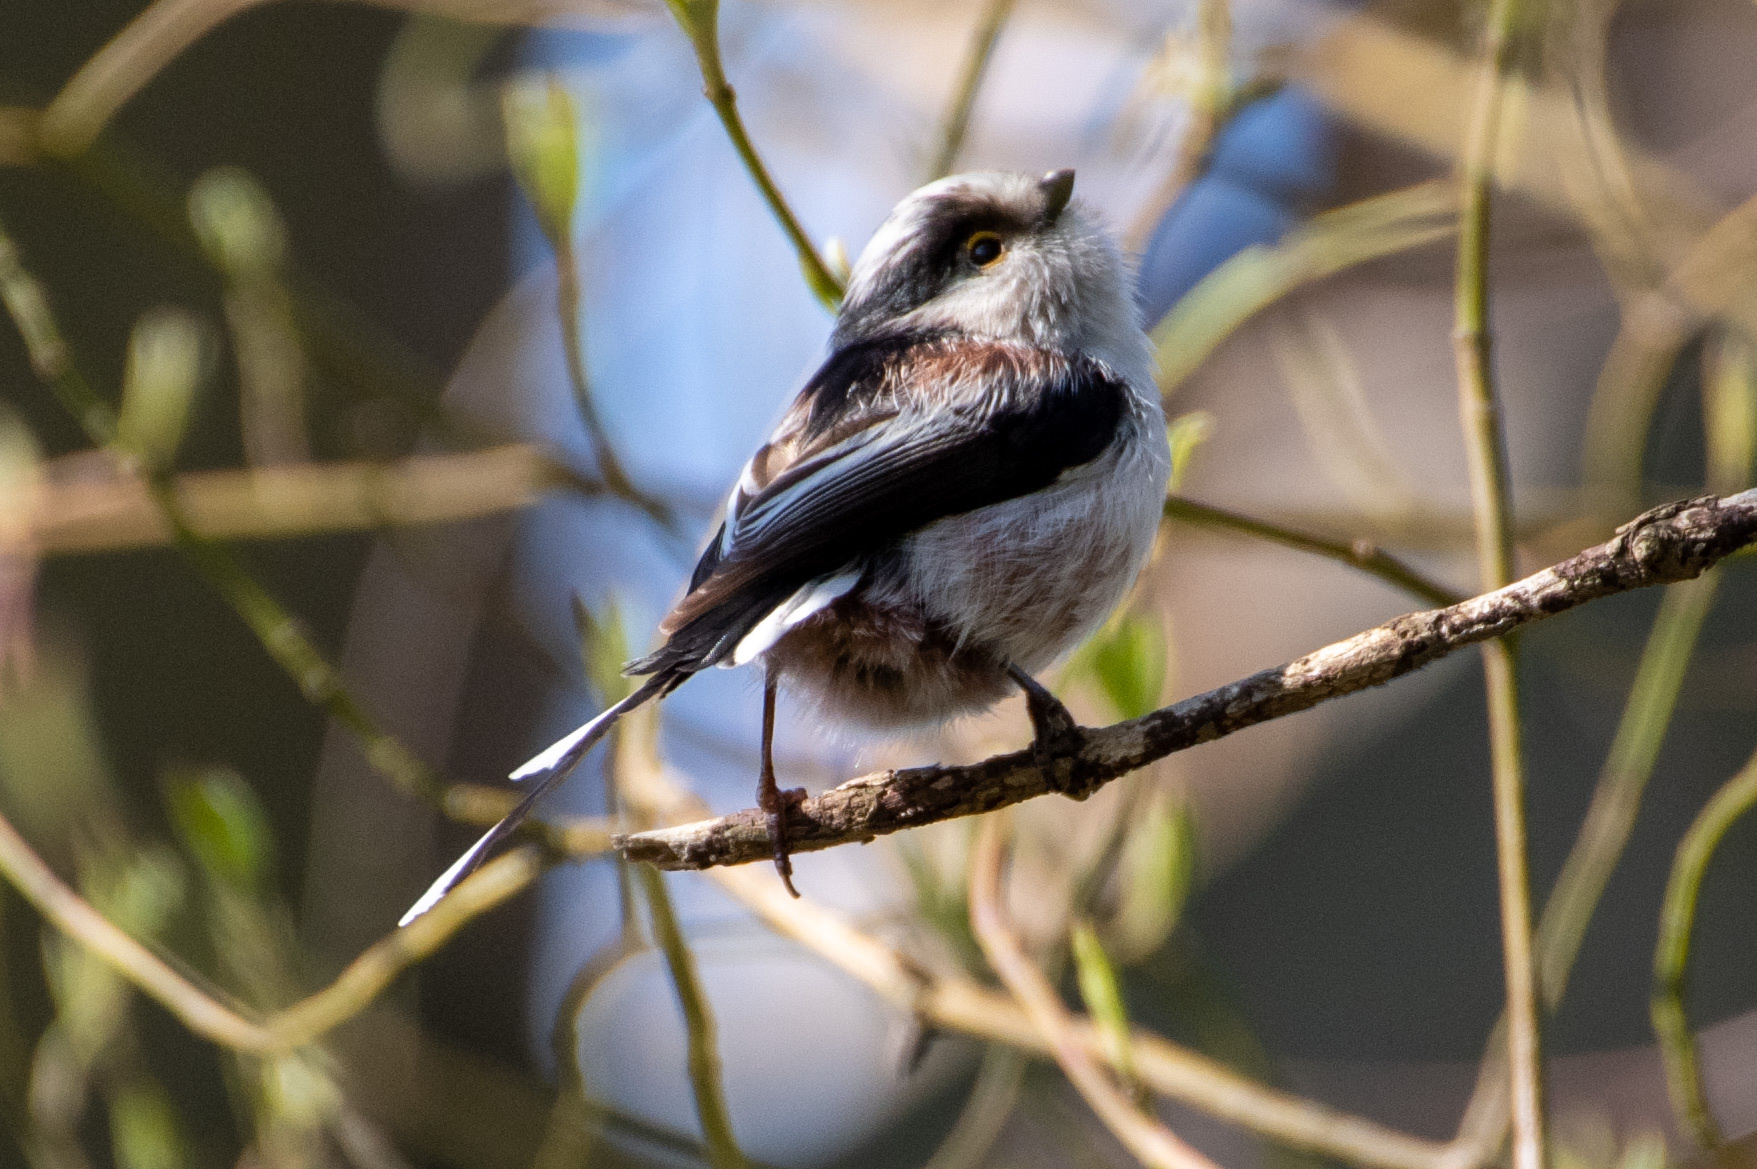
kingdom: Animalia
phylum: Chordata
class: Aves
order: Passeriformes
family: Aegithalidae
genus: Aegithalos
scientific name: Aegithalos caudatus
